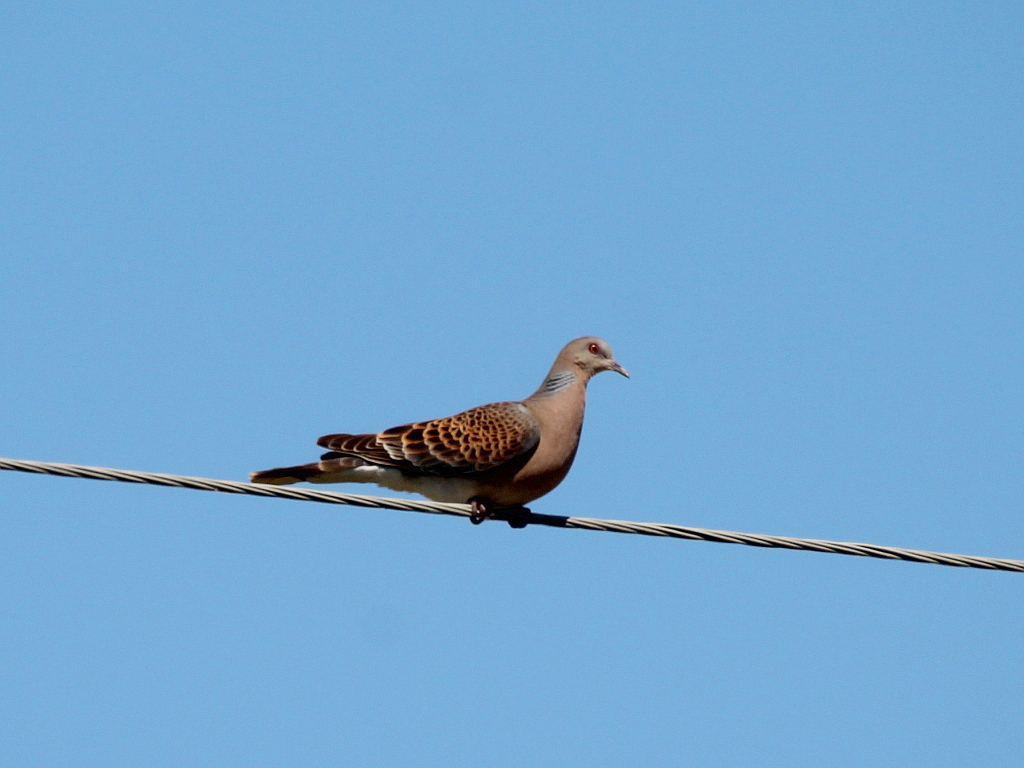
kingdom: Animalia
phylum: Chordata
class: Aves
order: Columbiformes
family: Columbidae
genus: Streptopelia
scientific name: Streptopelia orientalis
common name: Oriental turtle dove
